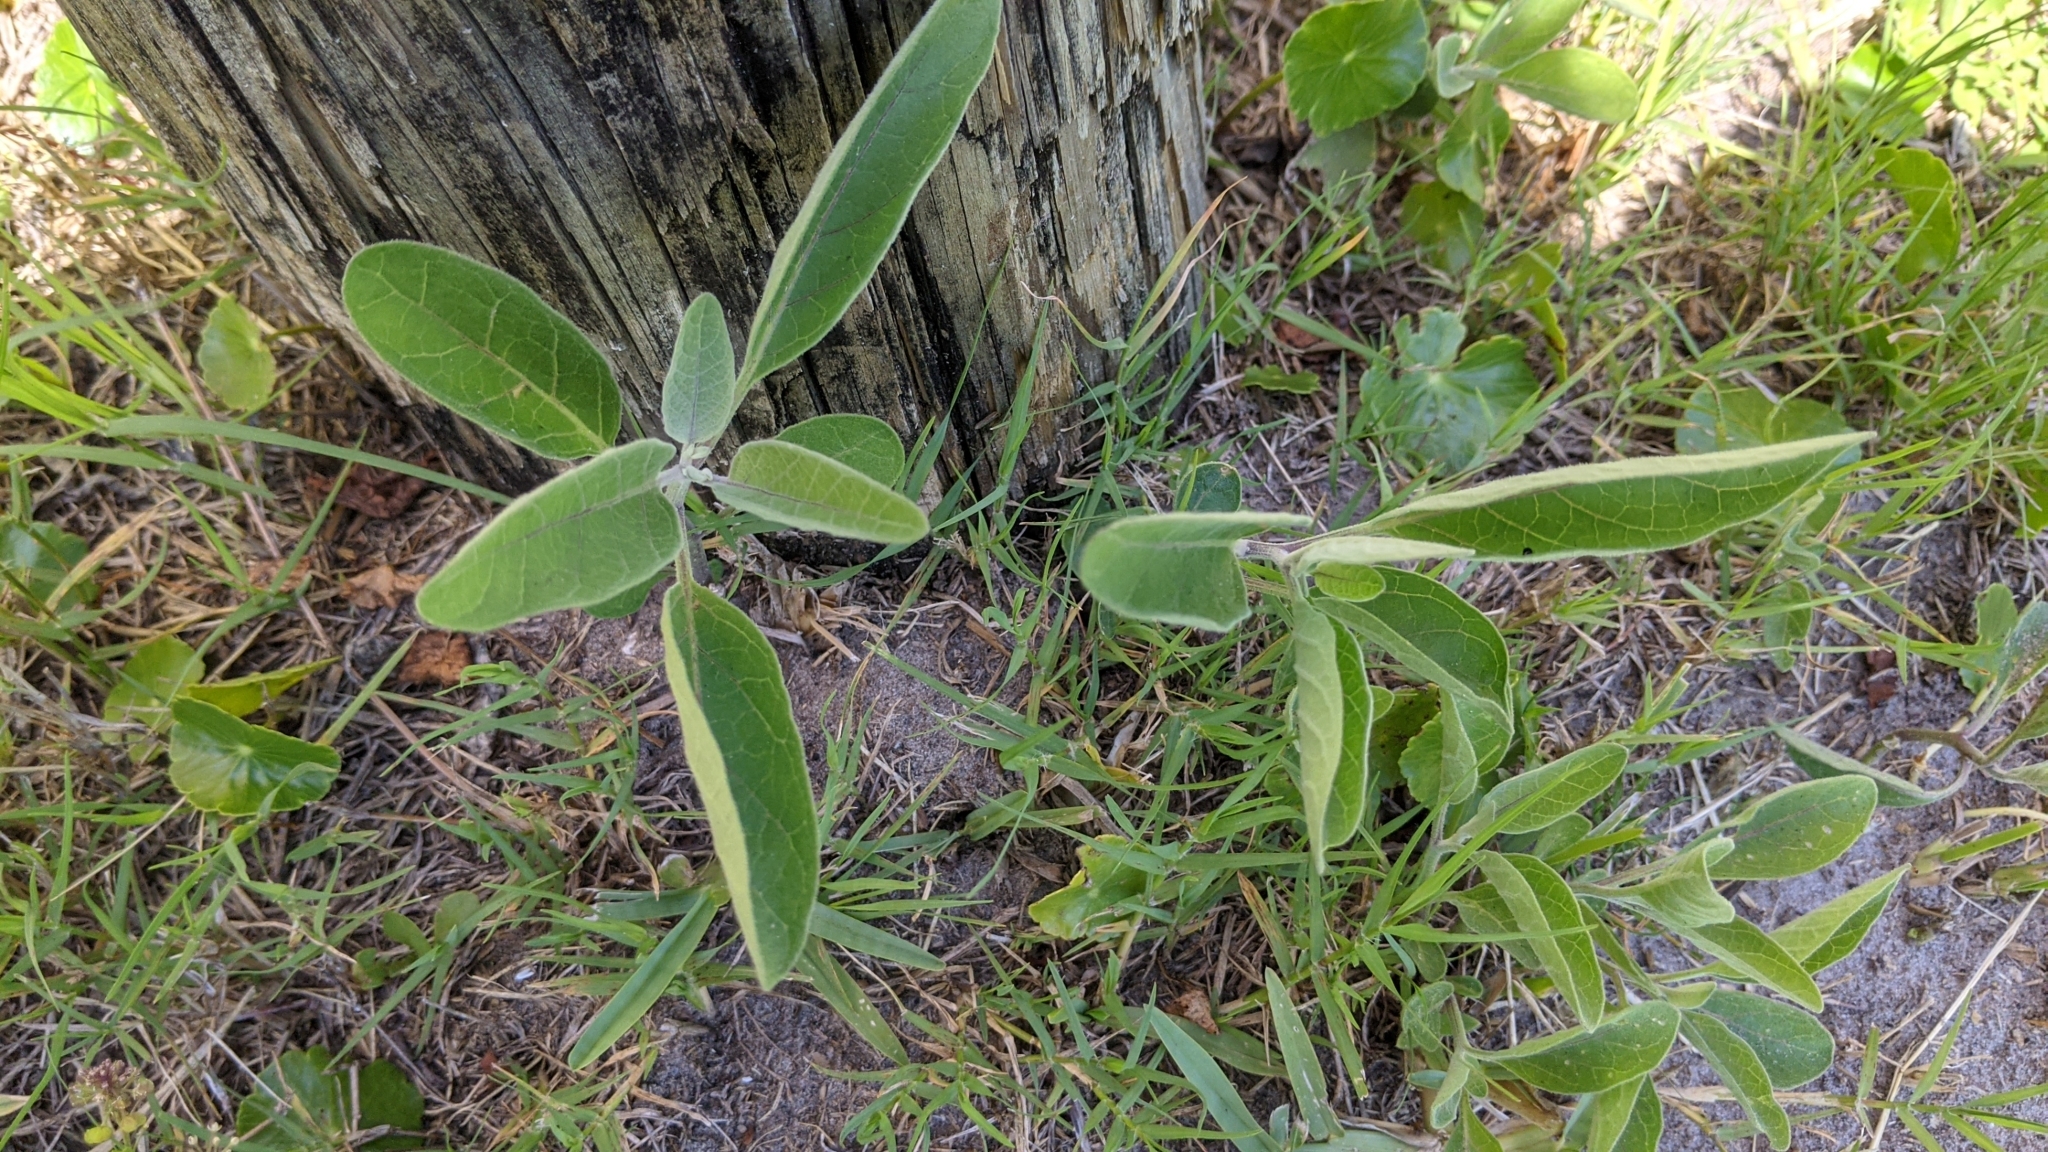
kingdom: Plantae
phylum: Tracheophyta
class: Magnoliopsida
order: Solanales
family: Solanaceae
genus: Physalis
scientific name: Physalis walteri
